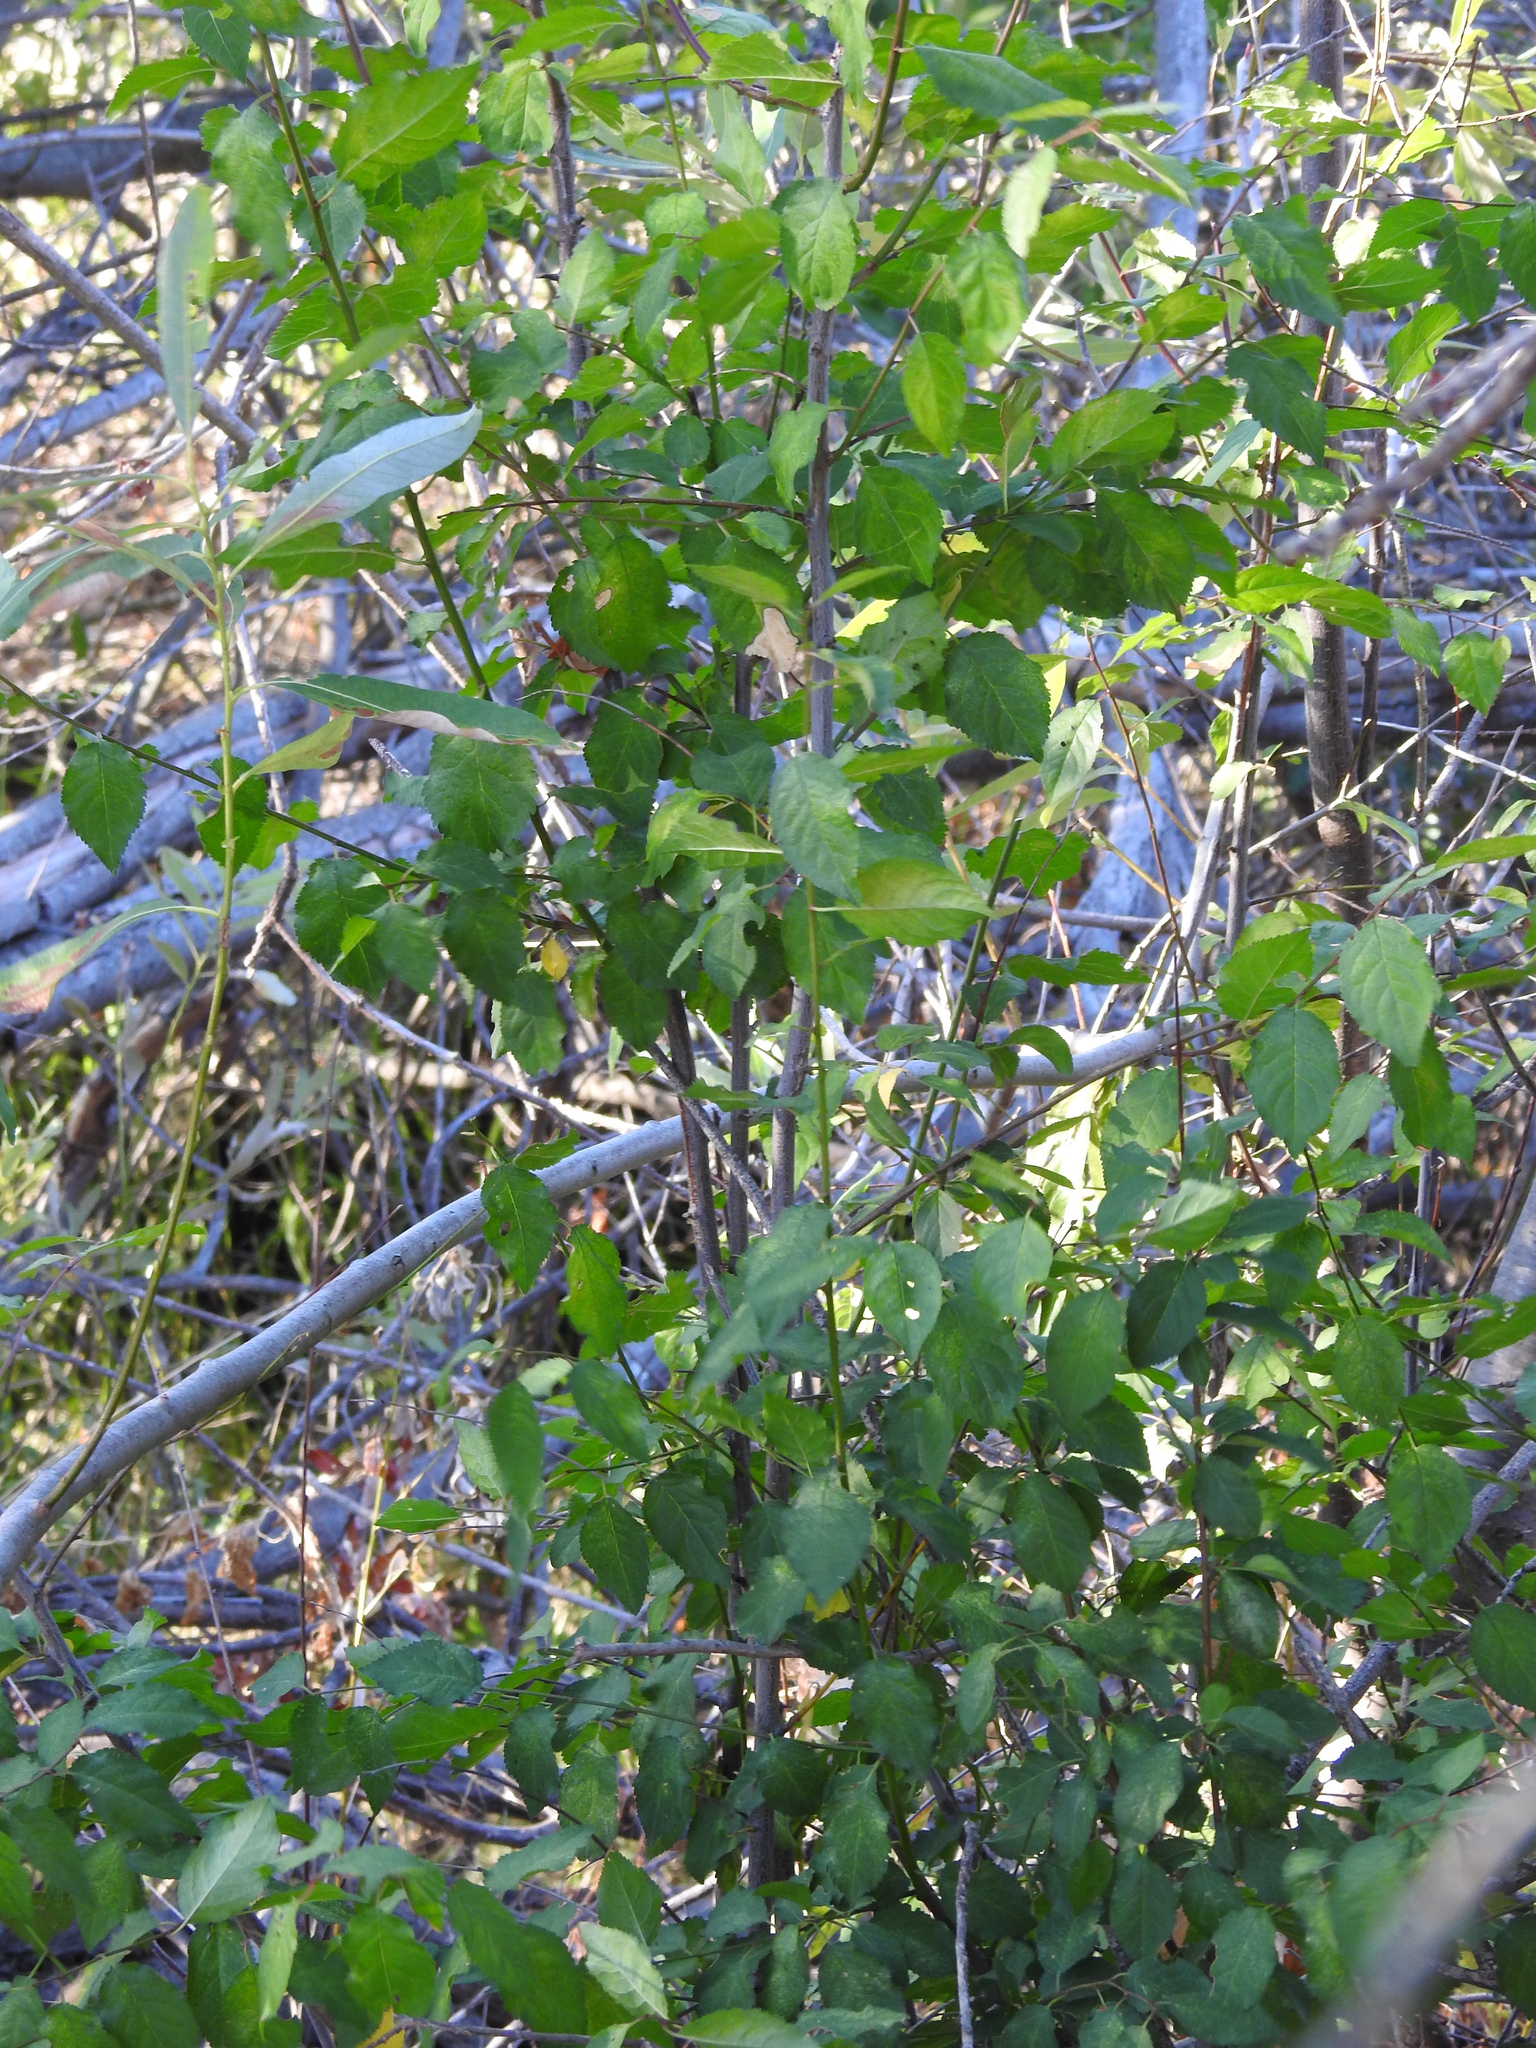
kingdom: Plantae
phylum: Tracheophyta
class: Magnoliopsida
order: Rosales
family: Rosaceae
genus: Prunus
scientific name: Prunus cerasifera
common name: Cherry plum
